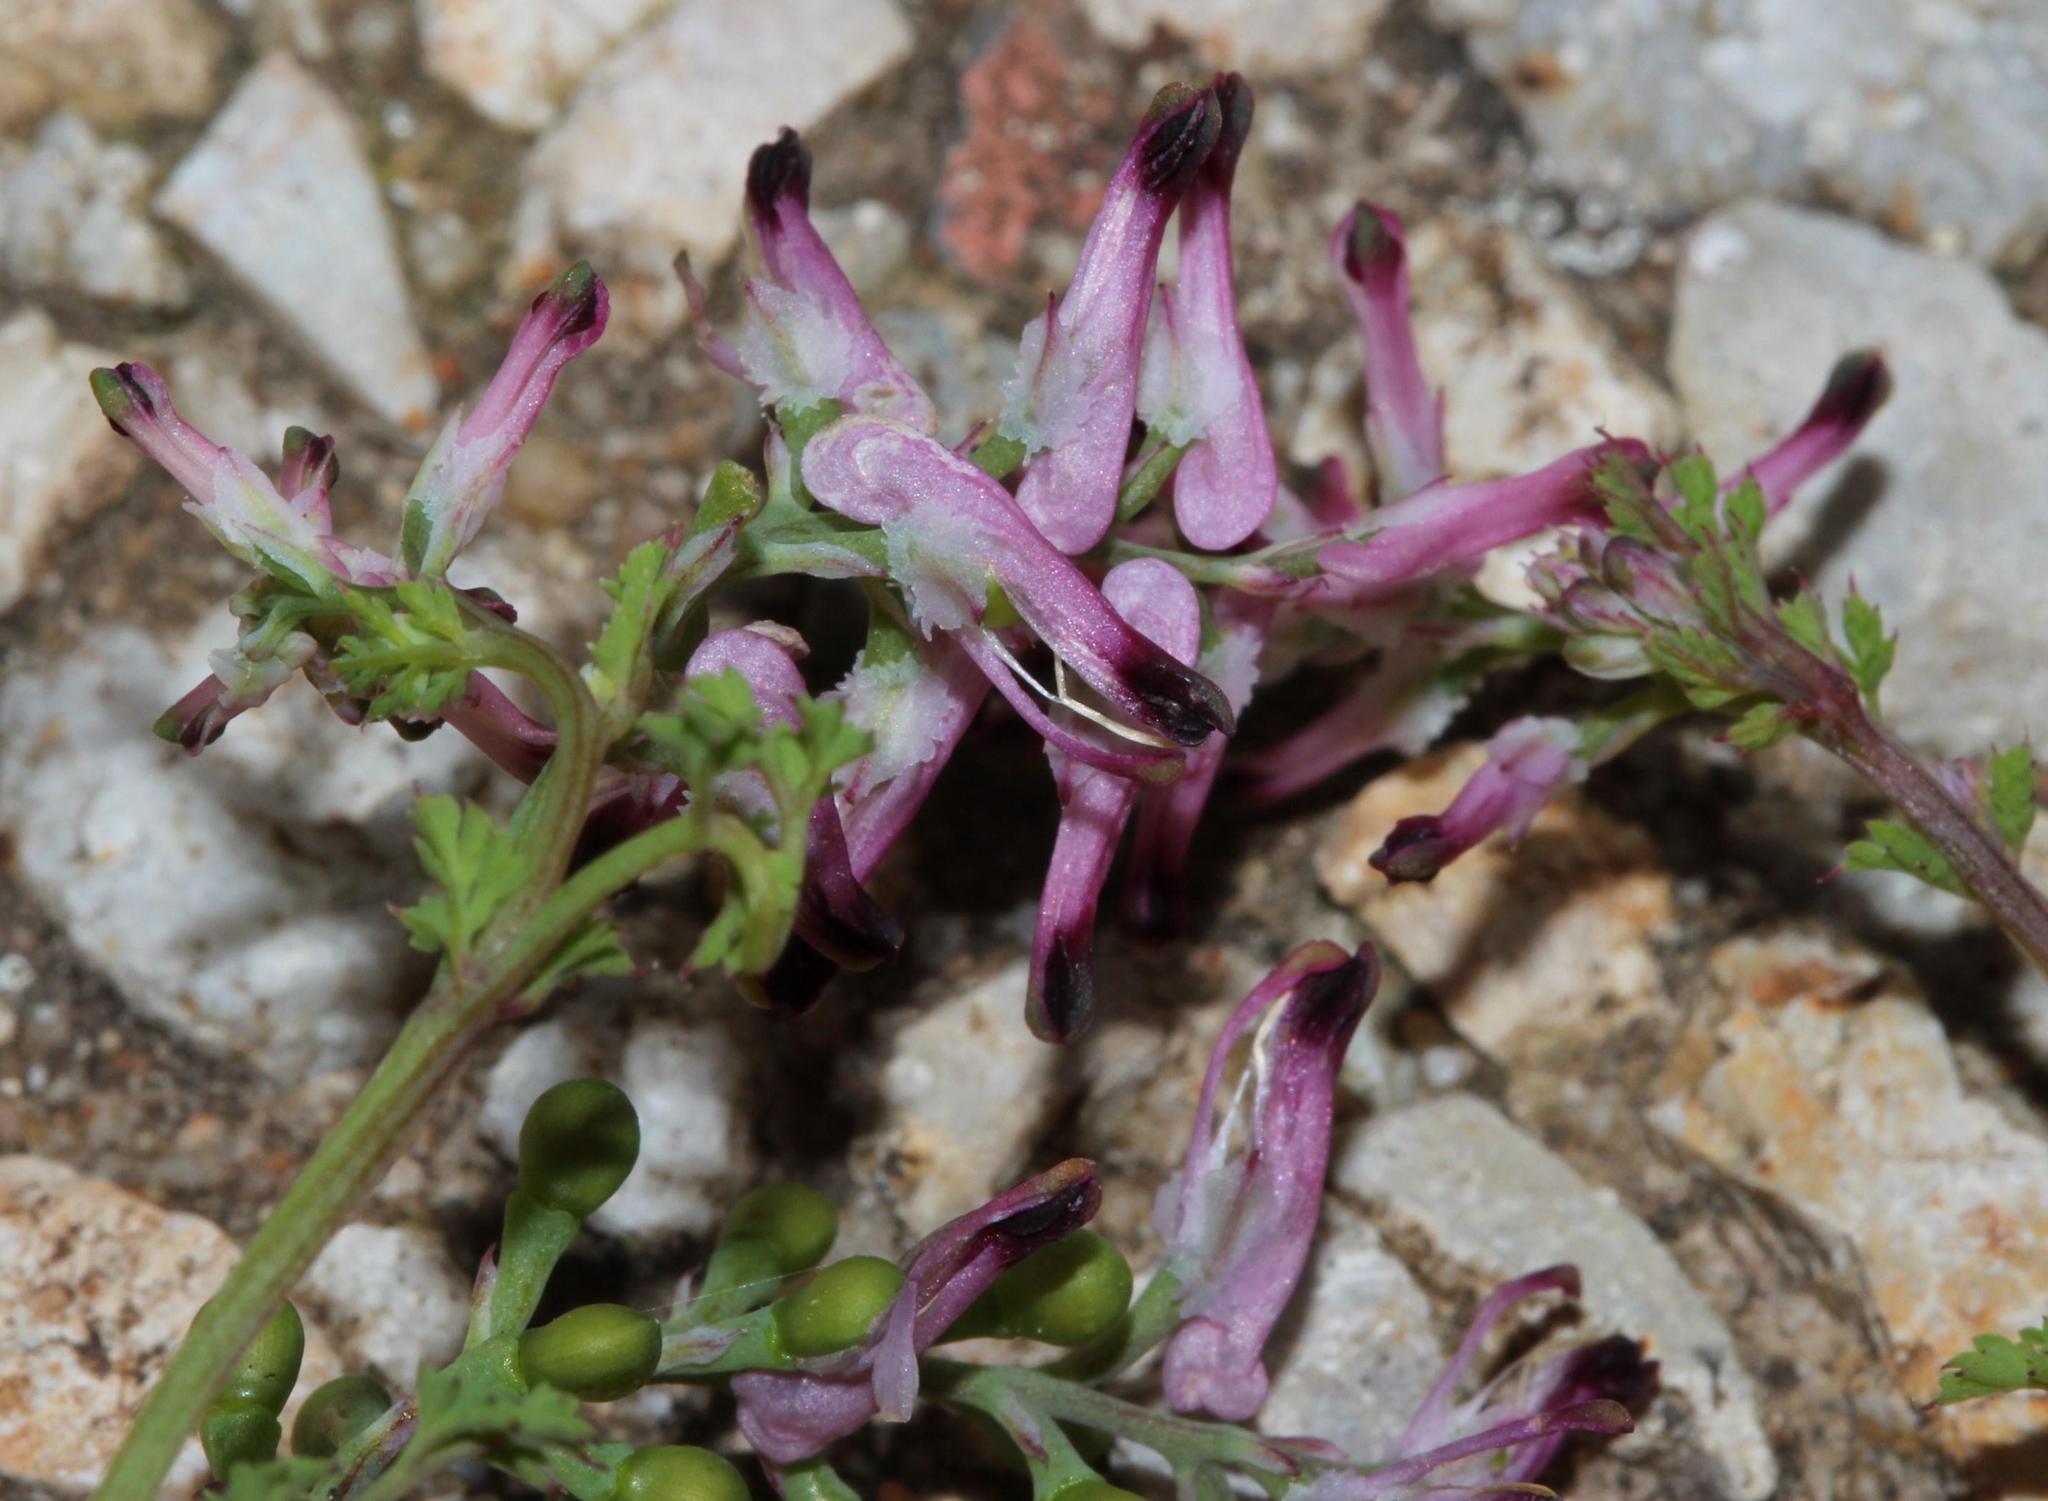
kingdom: Plantae
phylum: Tracheophyta
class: Magnoliopsida
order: Ranunculales
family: Papaveraceae
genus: Fumaria
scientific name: Fumaria muralis
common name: Common ramping-fumitory
